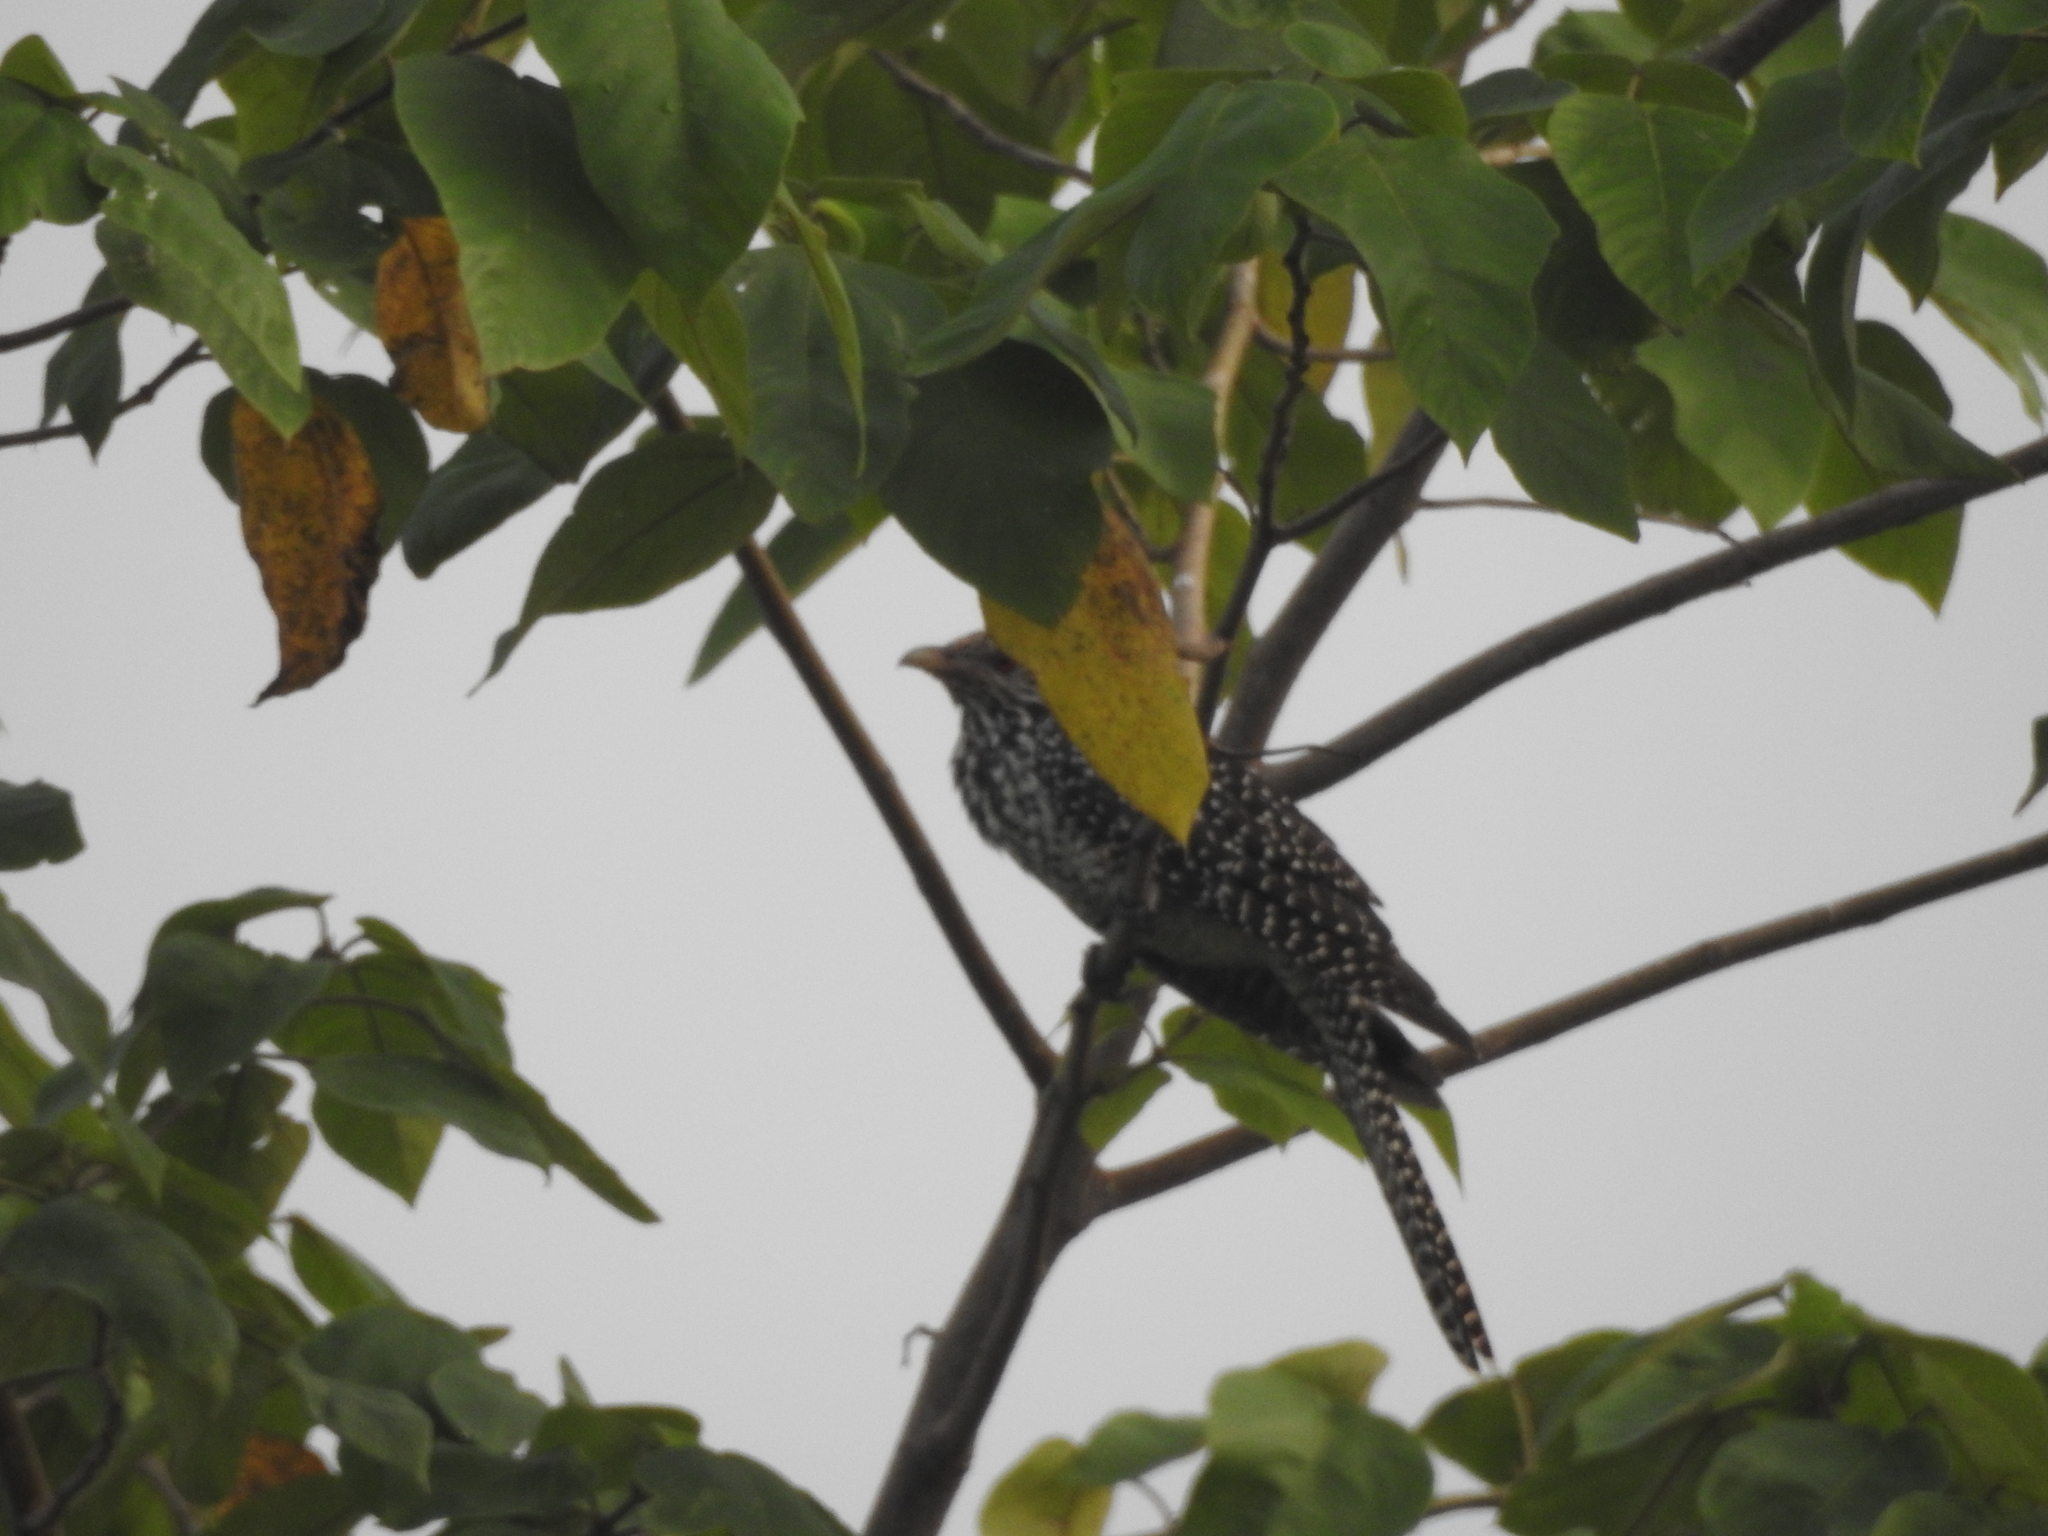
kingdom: Animalia
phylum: Chordata
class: Aves
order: Cuculiformes
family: Cuculidae
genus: Eudynamys
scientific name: Eudynamys scolopaceus
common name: Asian koel
